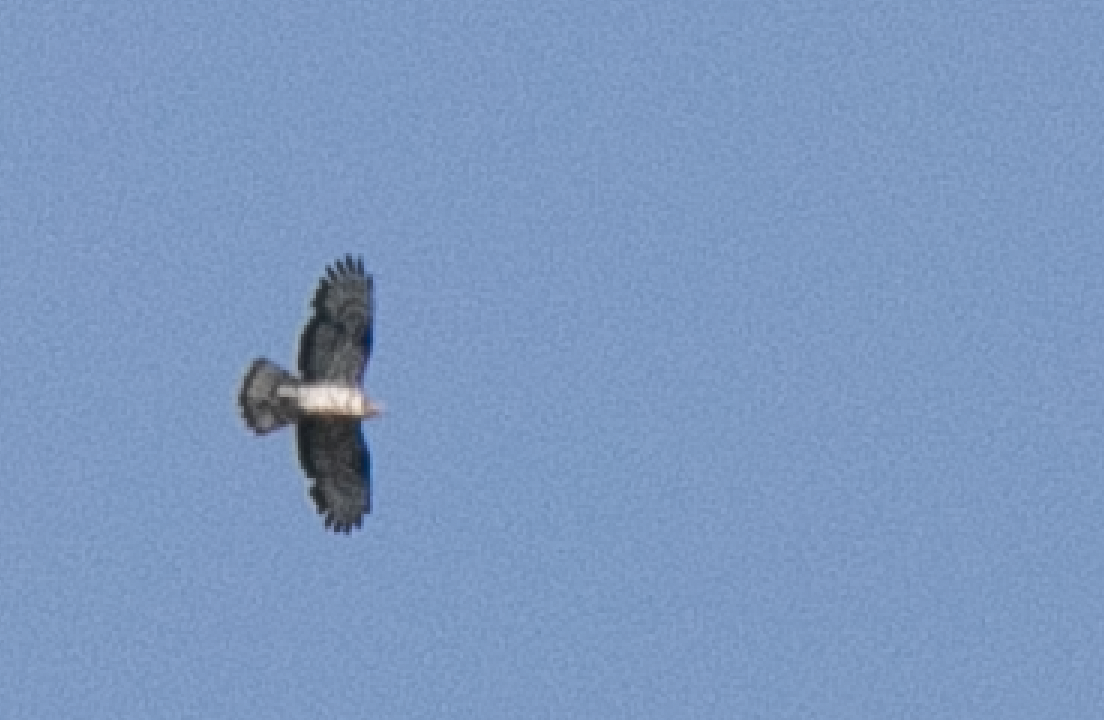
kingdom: Animalia
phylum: Chordata
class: Aves
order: Accipitriformes
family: Accipitridae
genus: Pernis
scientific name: Pernis apivorus
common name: European honey buzzard
